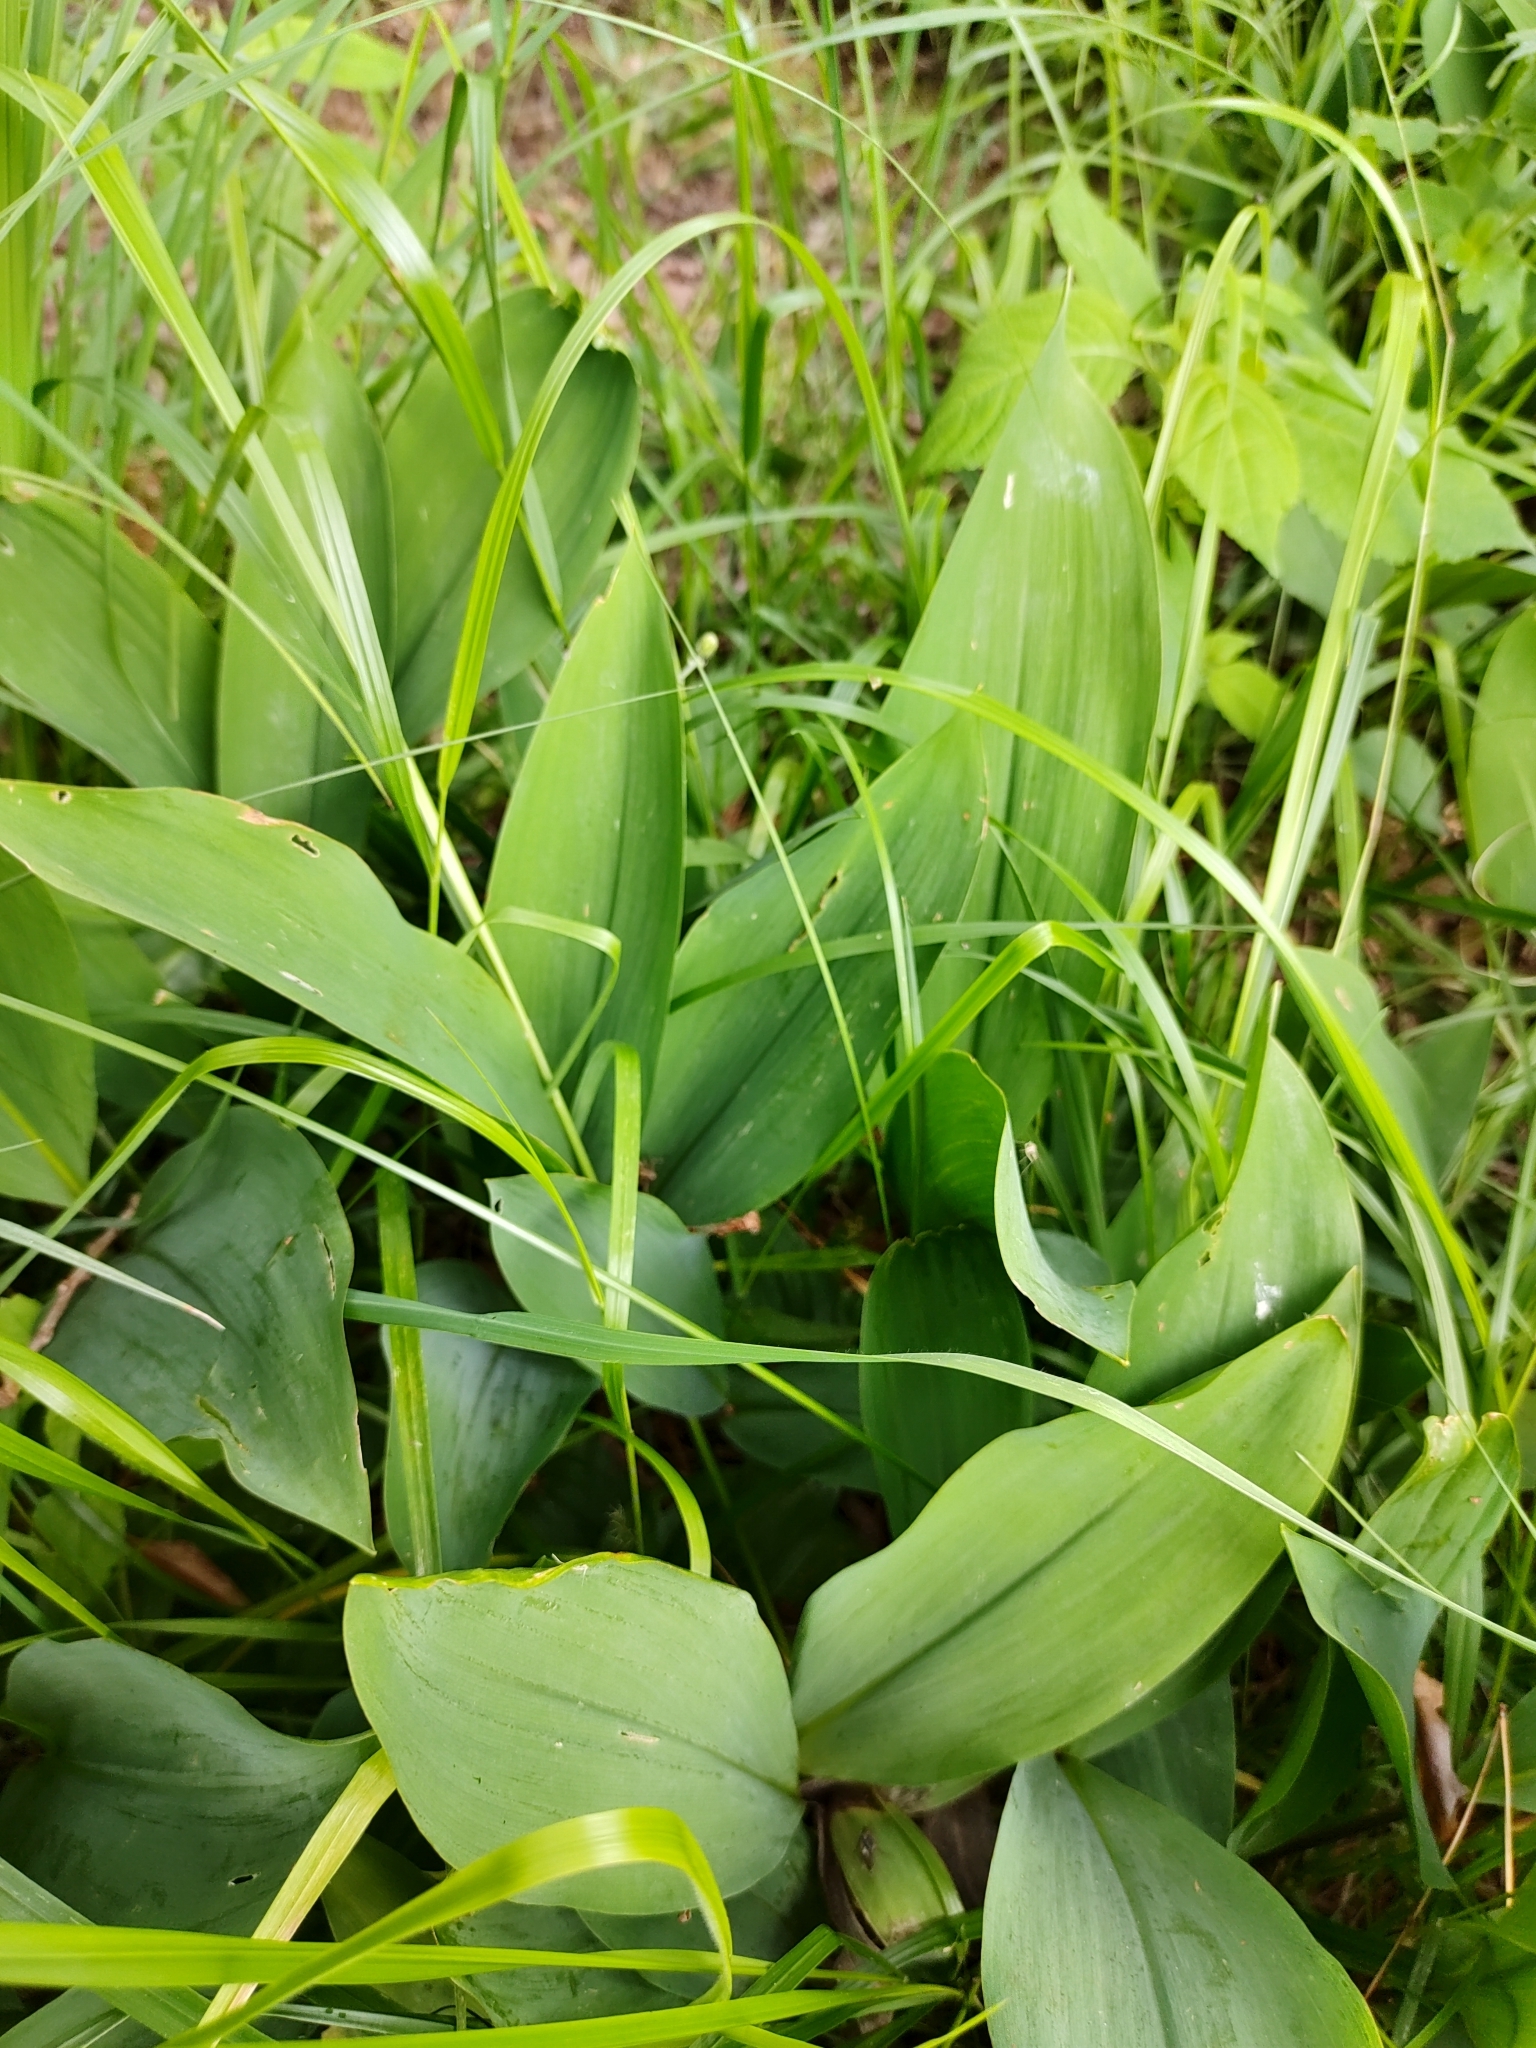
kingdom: Plantae
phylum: Tracheophyta
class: Liliopsida
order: Asparagales
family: Asparagaceae
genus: Convallaria
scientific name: Convallaria majalis
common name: Lily-of-the-valley
